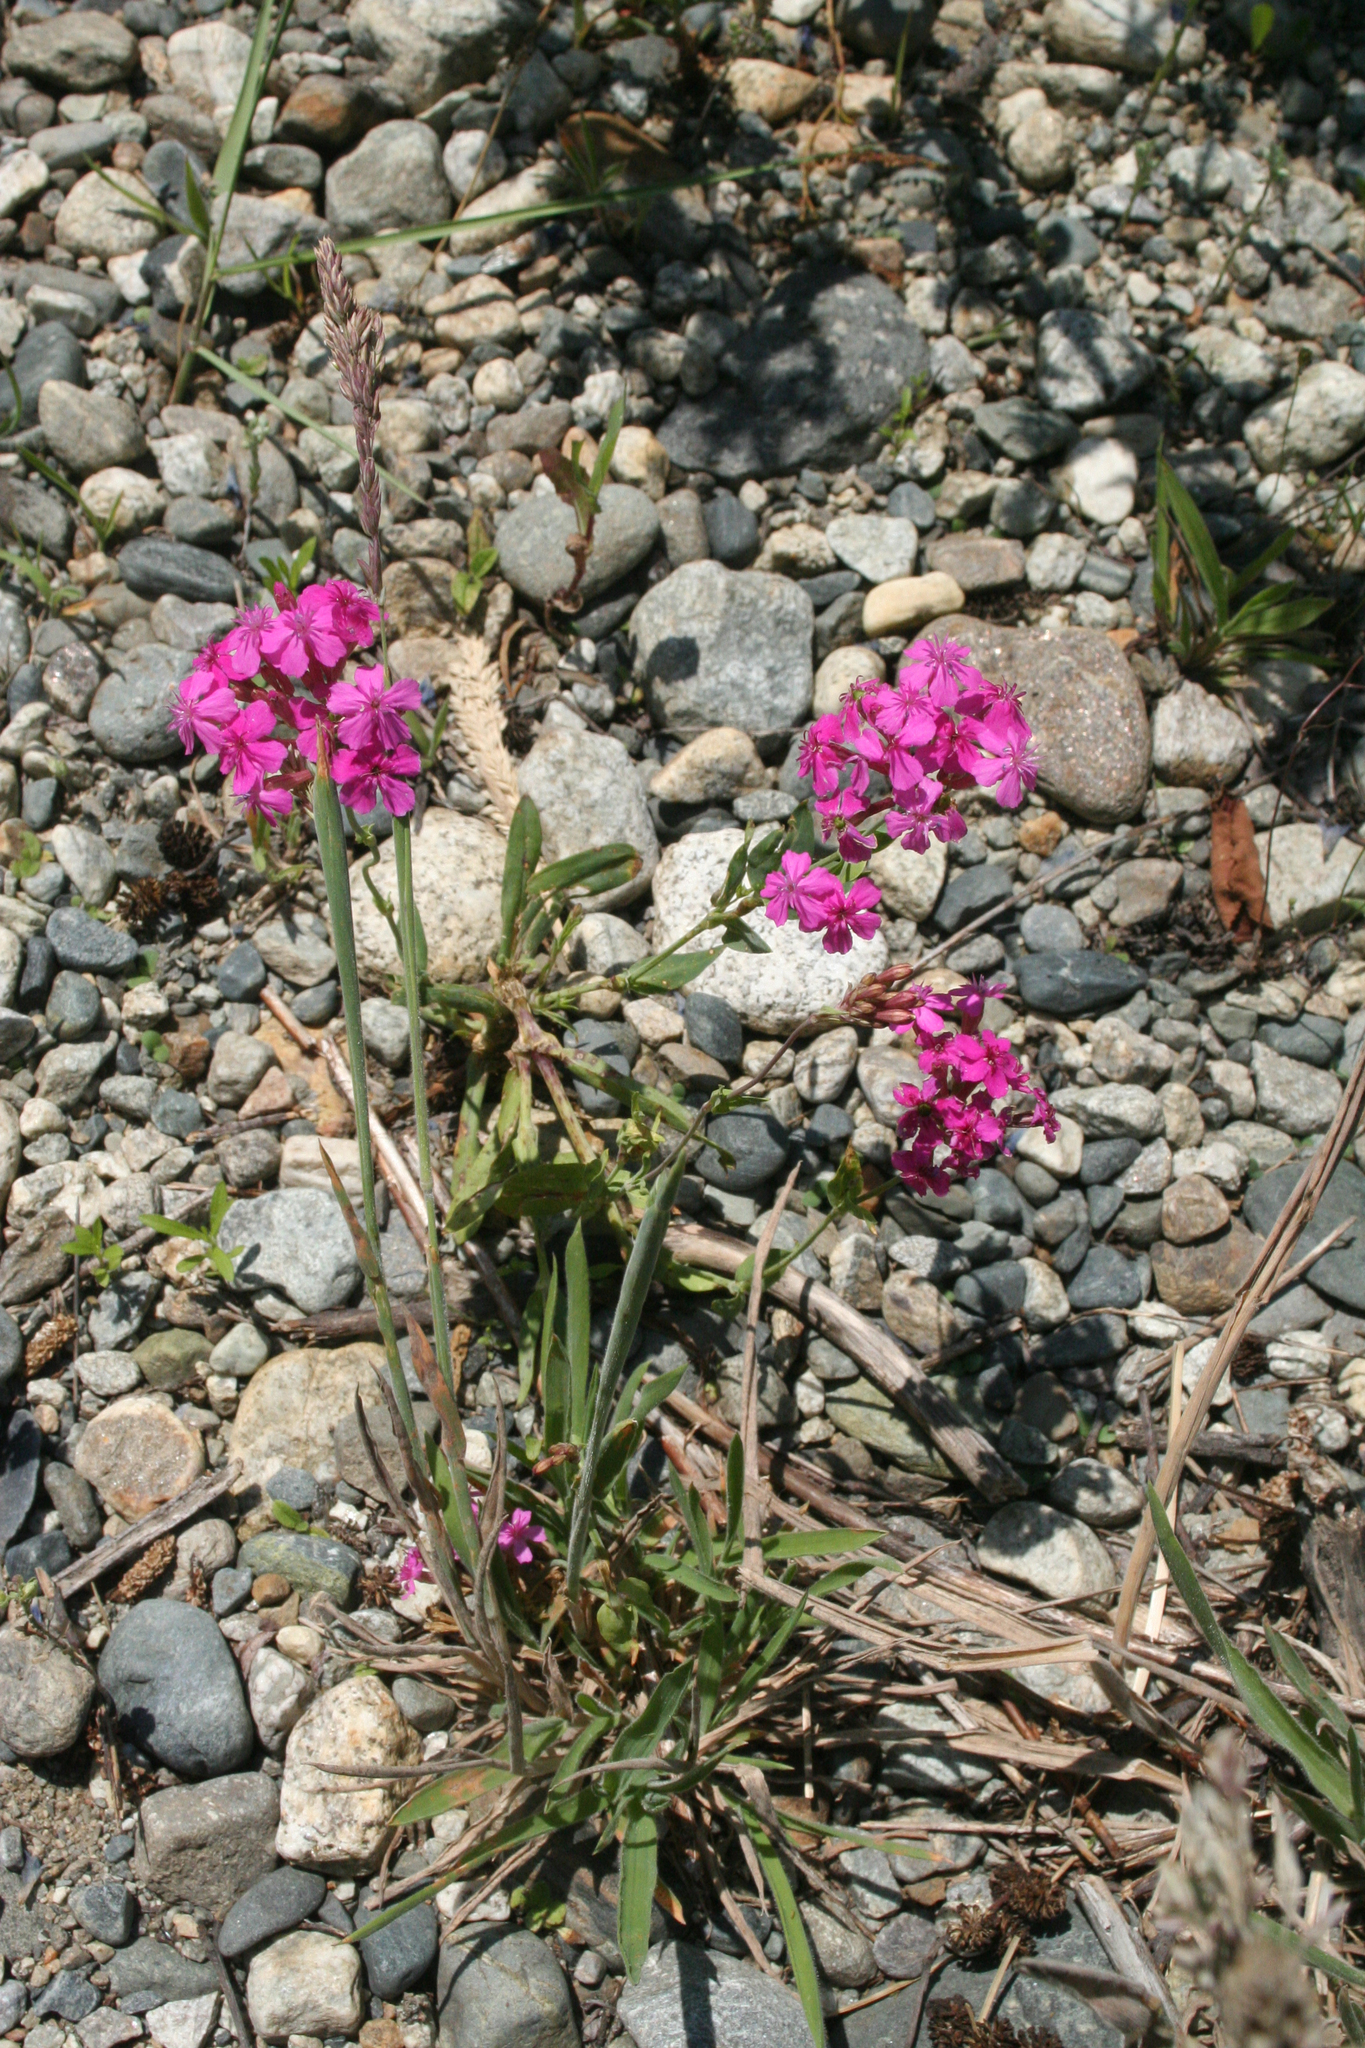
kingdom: Plantae
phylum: Tracheophyta
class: Magnoliopsida
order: Caryophyllales
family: Caryophyllaceae
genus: Atocion
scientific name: Atocion compactum
